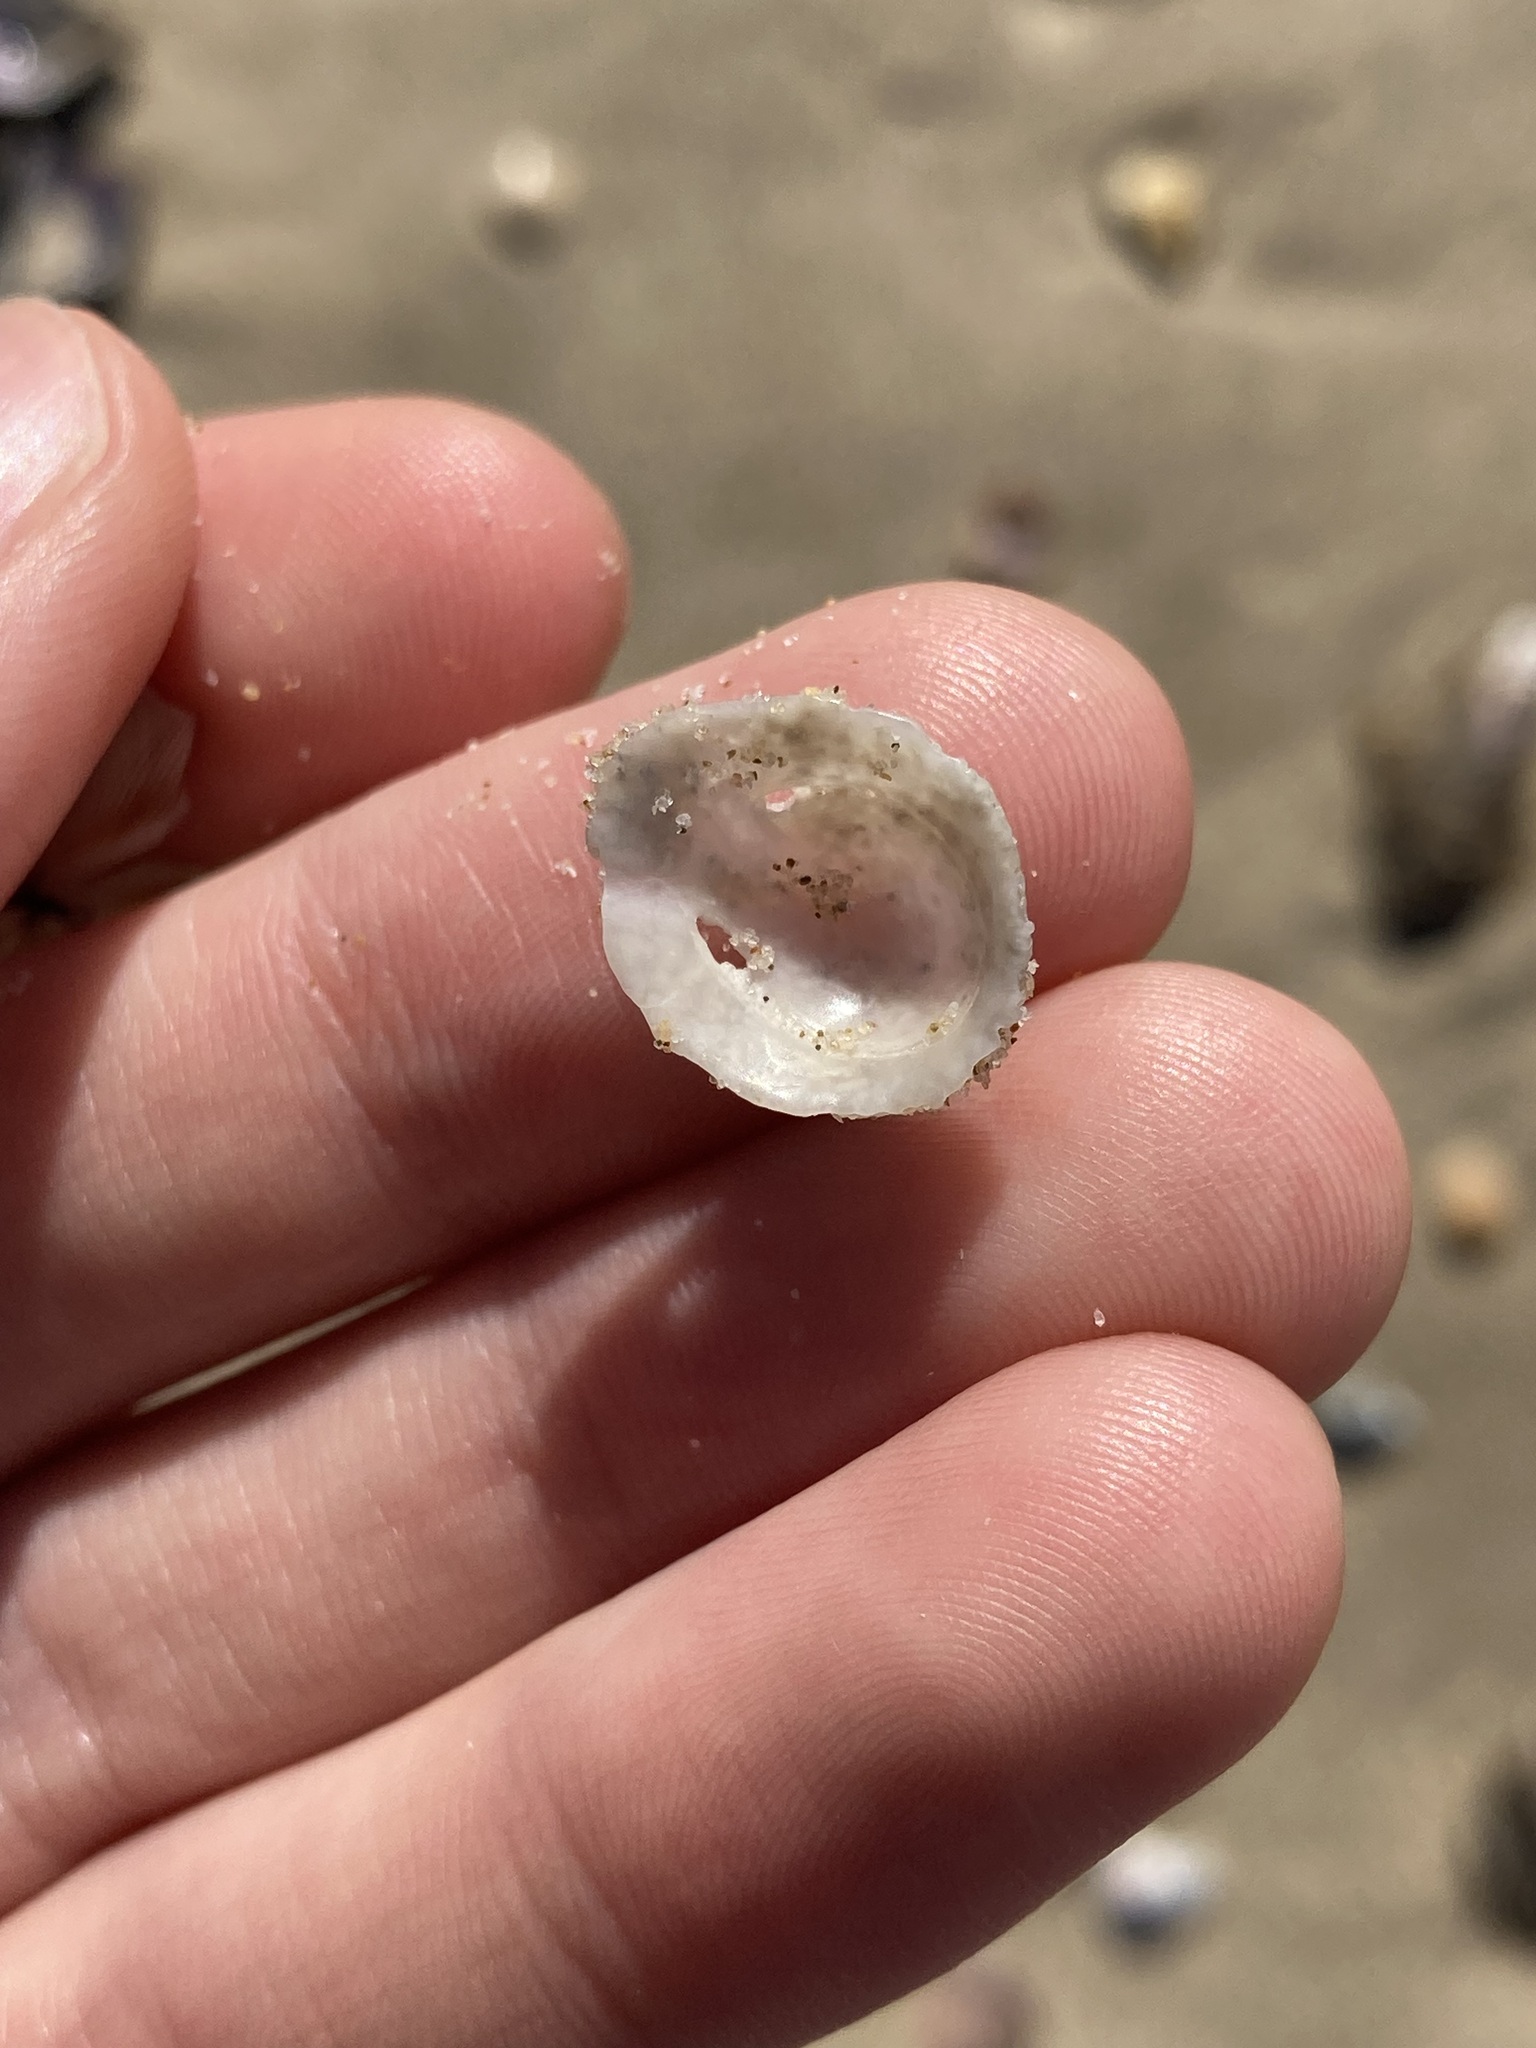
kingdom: Animalia
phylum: Mollusca
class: Gastropoda
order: Ellobiida
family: Trimusculidae
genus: Trimusculus
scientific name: Trimusculus conicus
